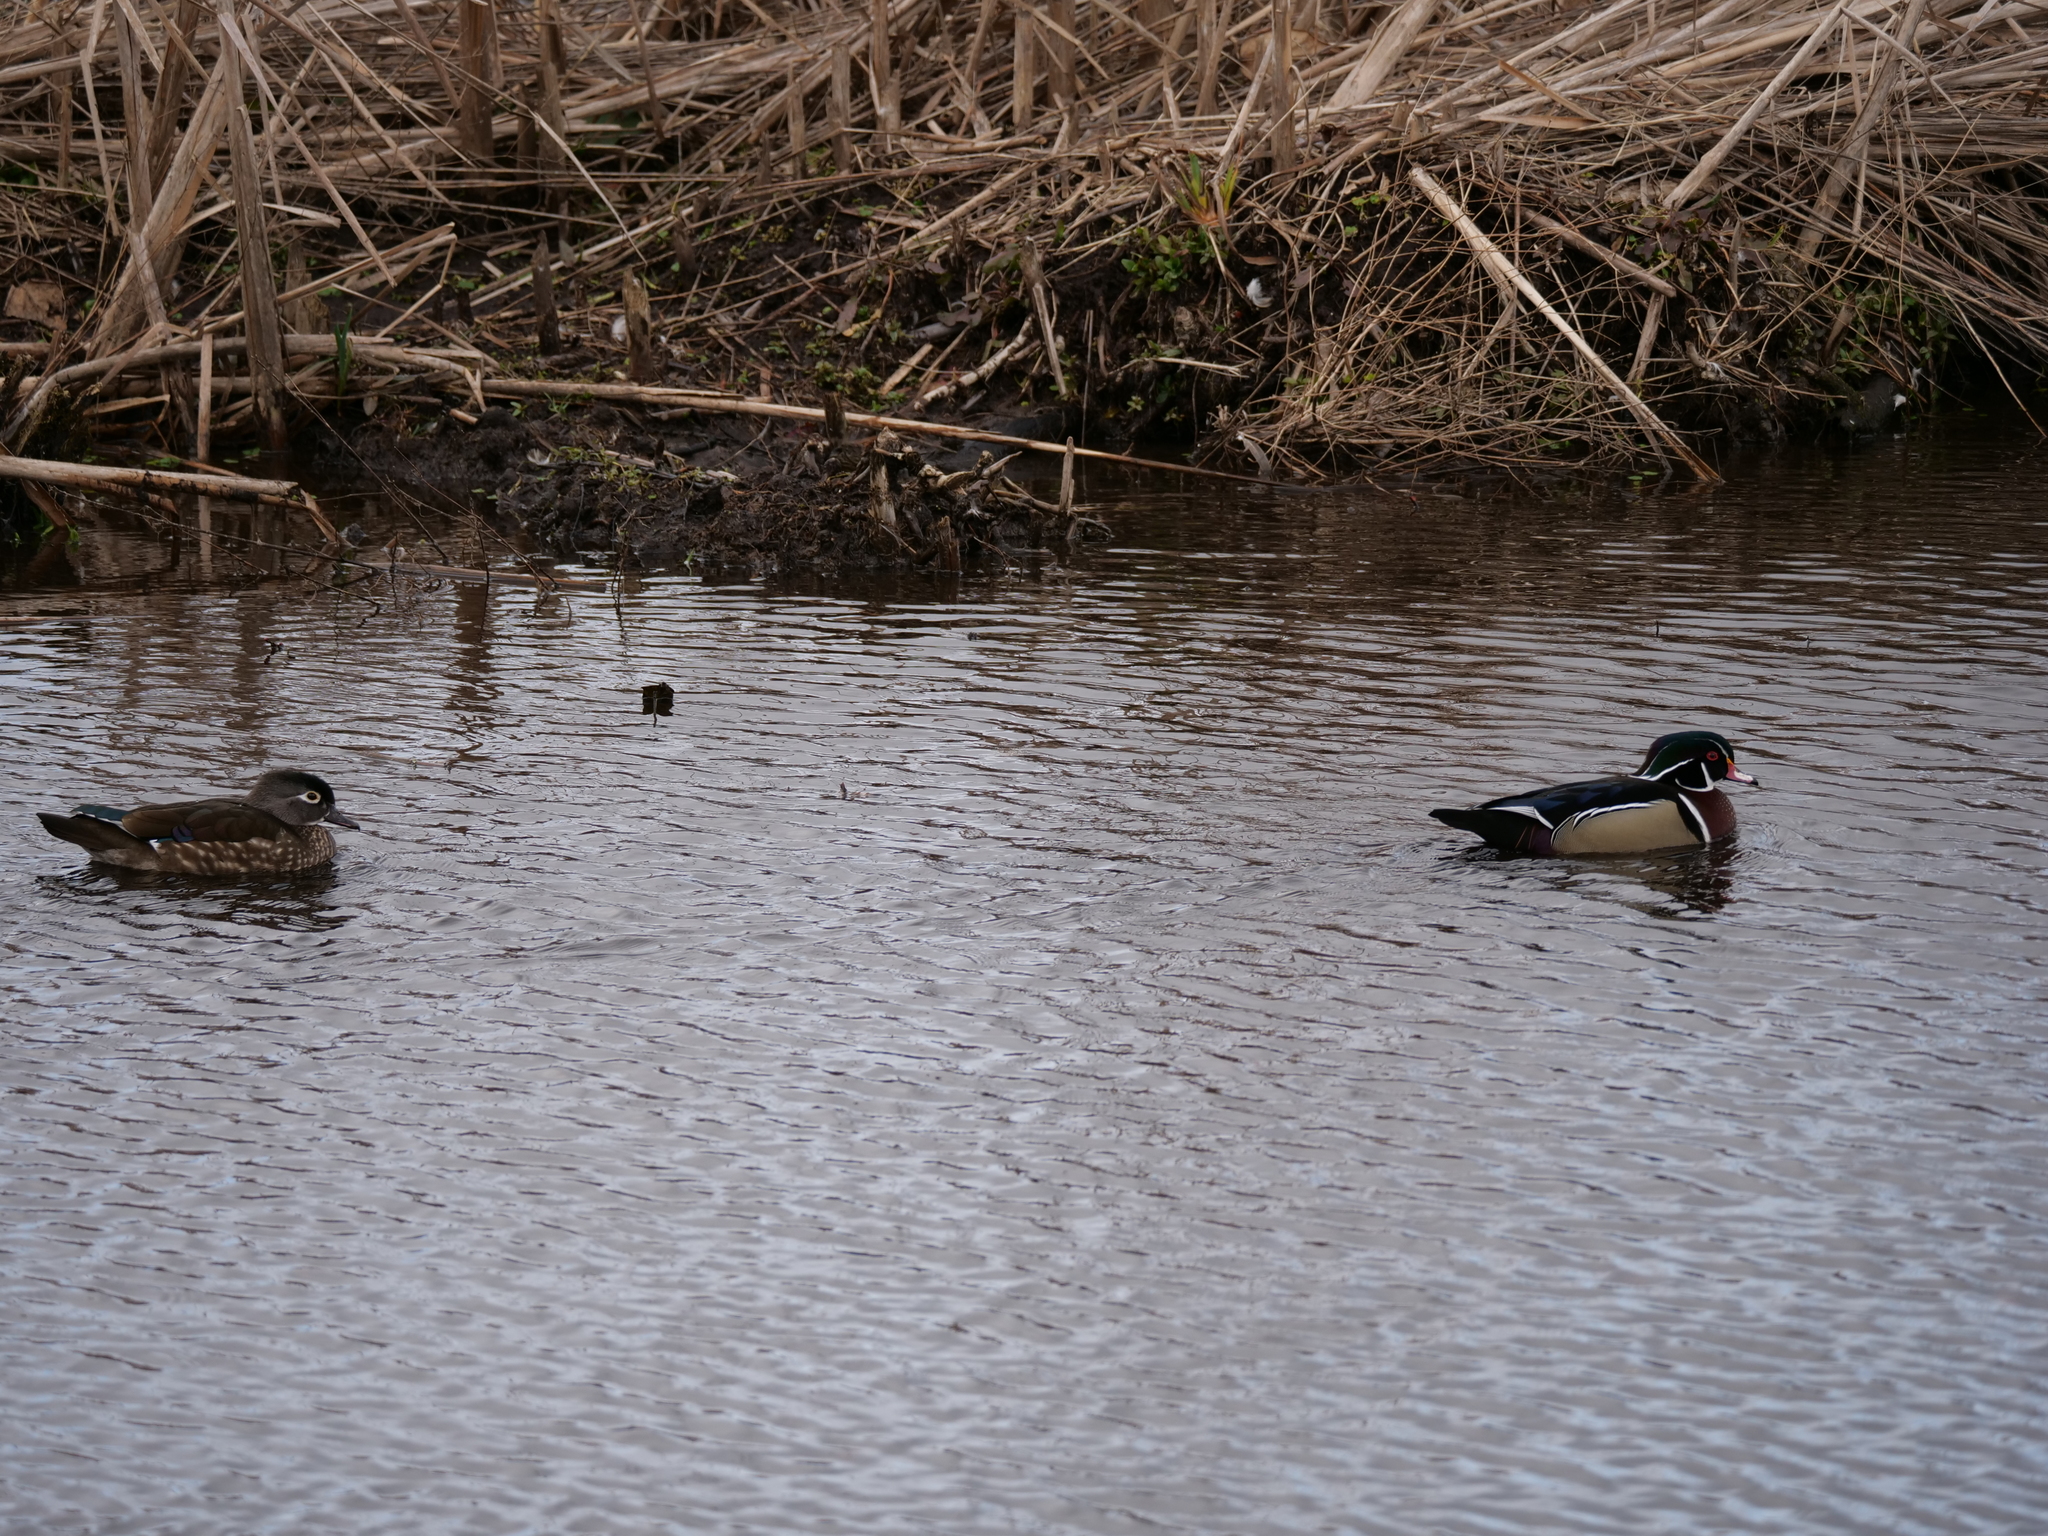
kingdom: Animalia
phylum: Chordata
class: Aves
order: Anseriformes
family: Anatidae
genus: Aix
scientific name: Aix sponsa
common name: Wood duck
